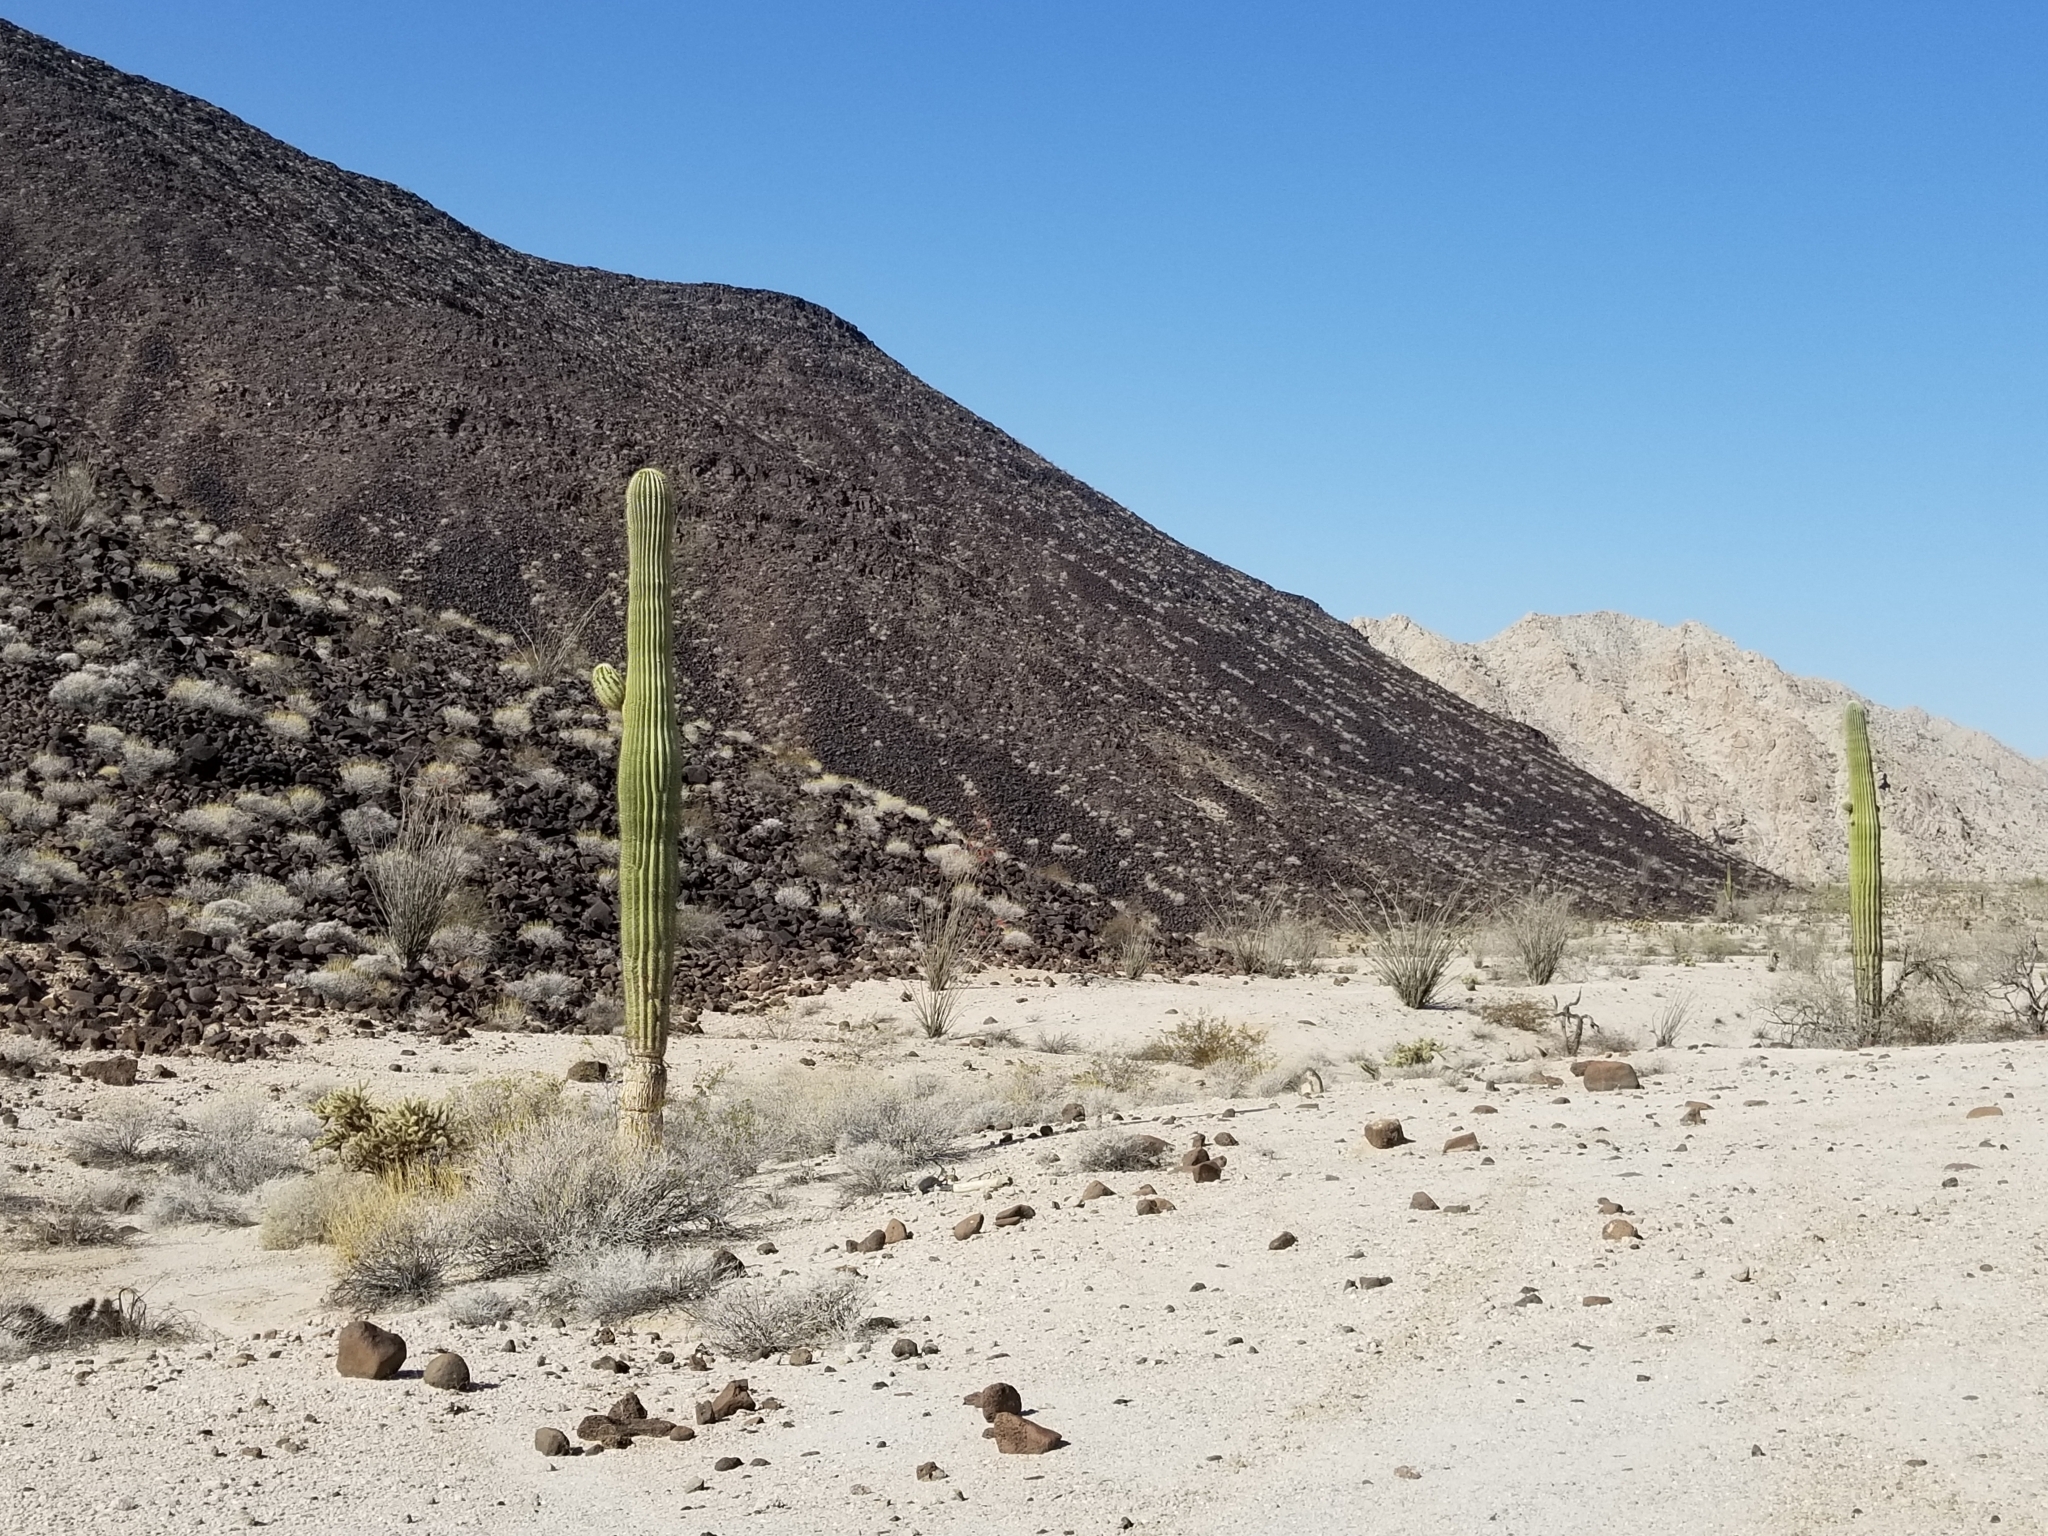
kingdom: Plantae
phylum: Tracheophyta
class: Magnoliopsida
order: Caryophyllales
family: Cactaceae
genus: Carnegiea
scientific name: Carnegiea gigantea
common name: Saguaro
